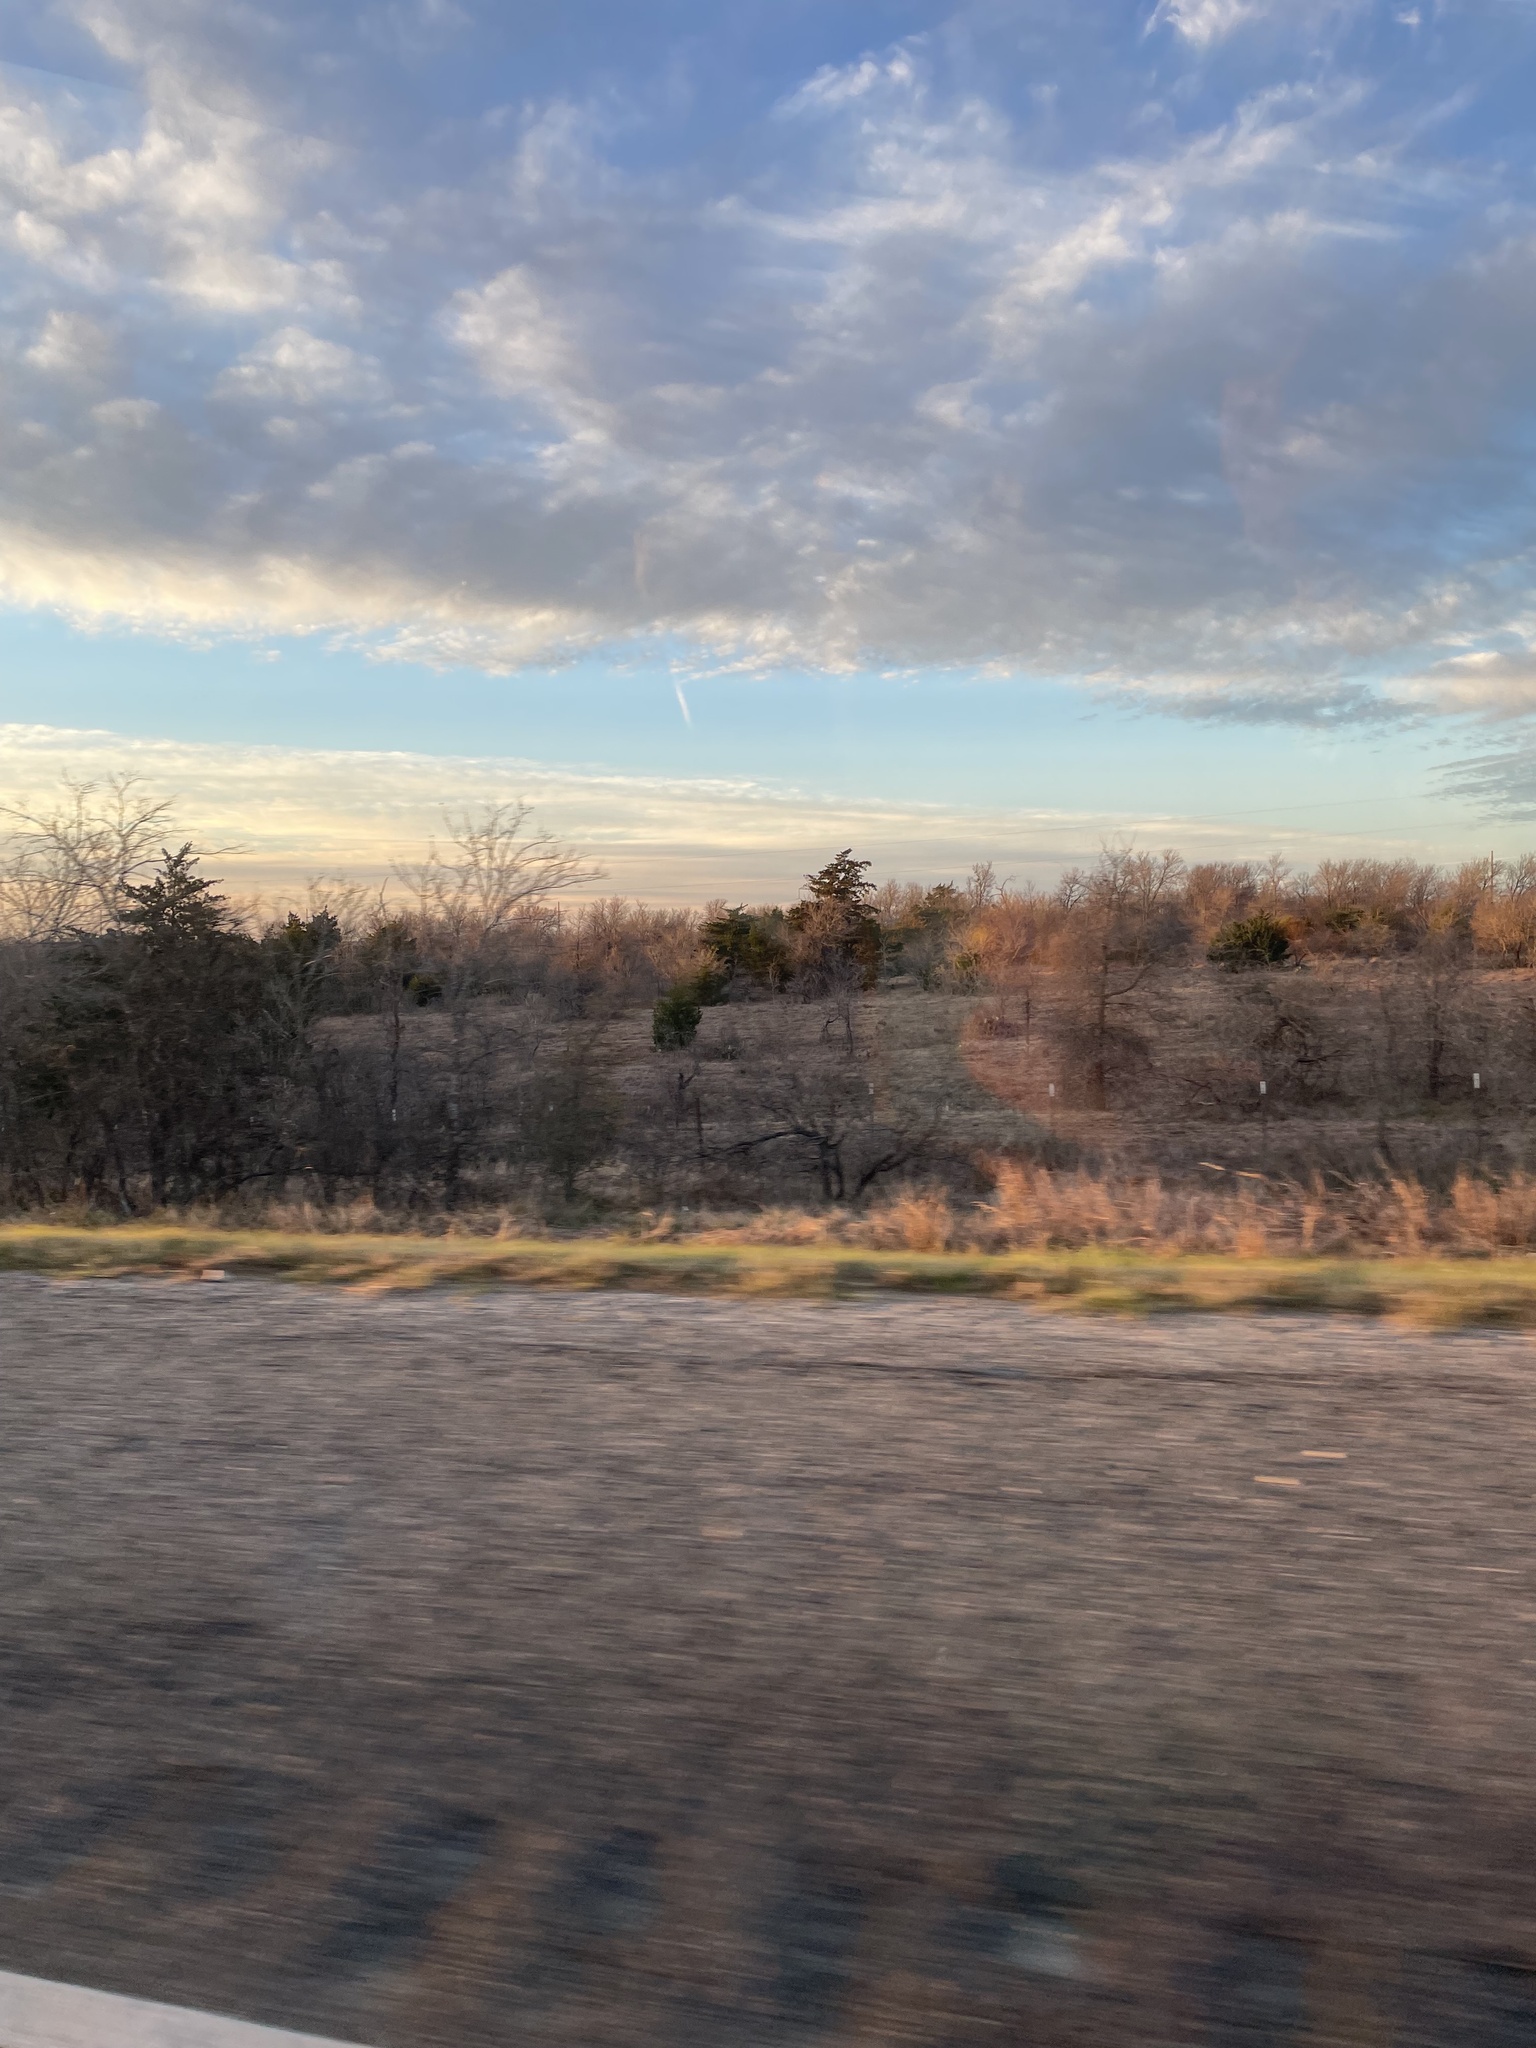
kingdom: Plantae
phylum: Tracheophyta
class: Pinopsida
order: Pinales
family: Cupressaceae
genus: Juniperus
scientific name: Juniperus virginiana
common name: Red juniper
